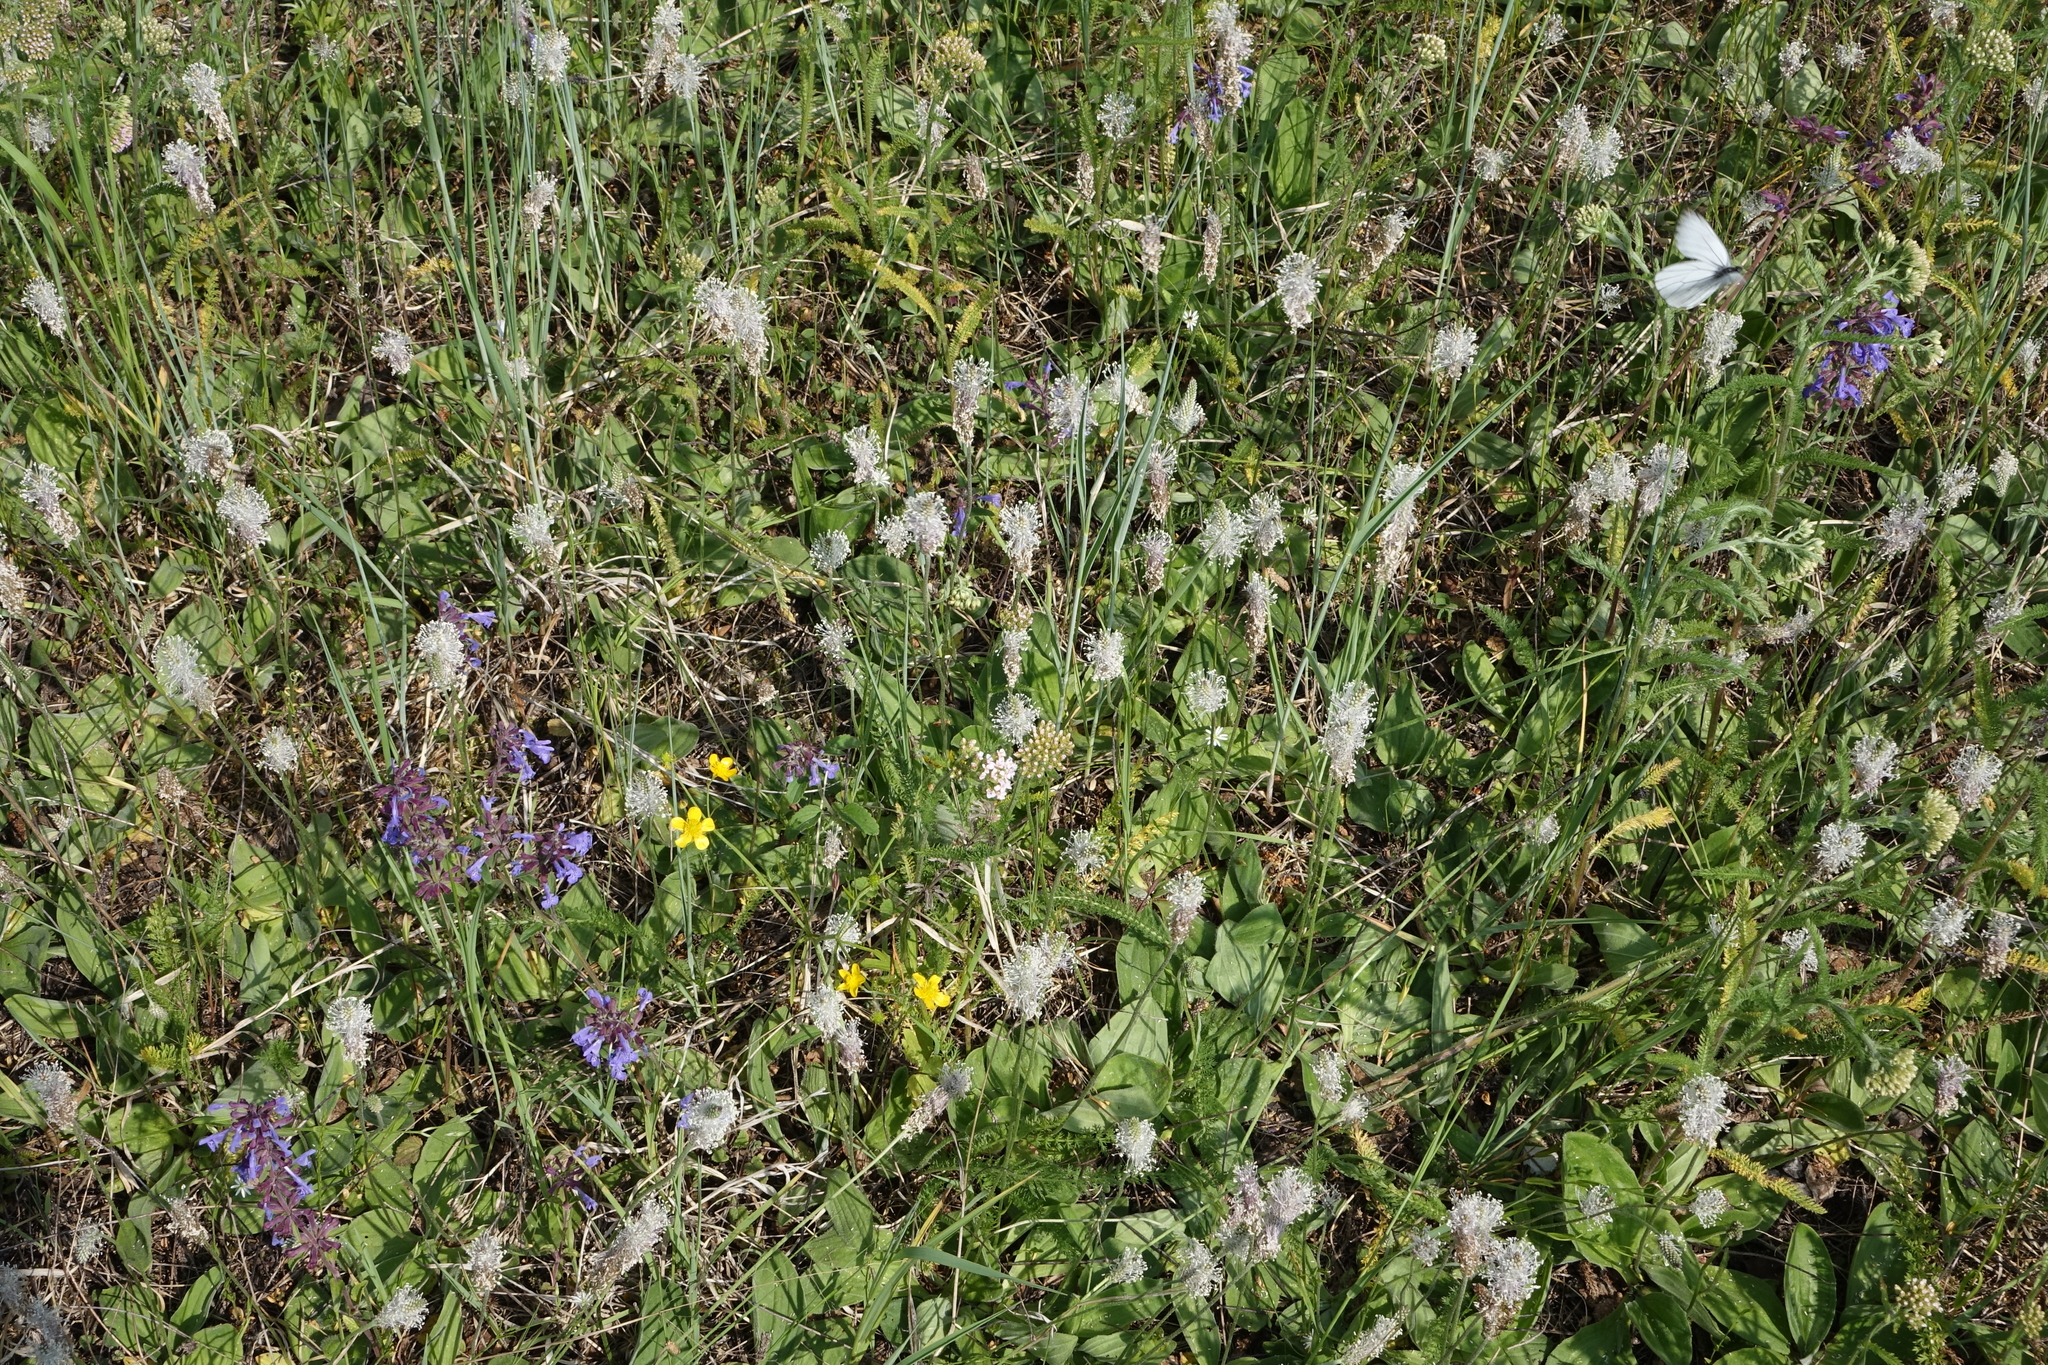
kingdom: Plantae
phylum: Tracheophyta
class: Magnoliopsida
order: Lamiales
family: Plantaginaceae
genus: Plantago
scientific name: Plantago media
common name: Hoary plantain
